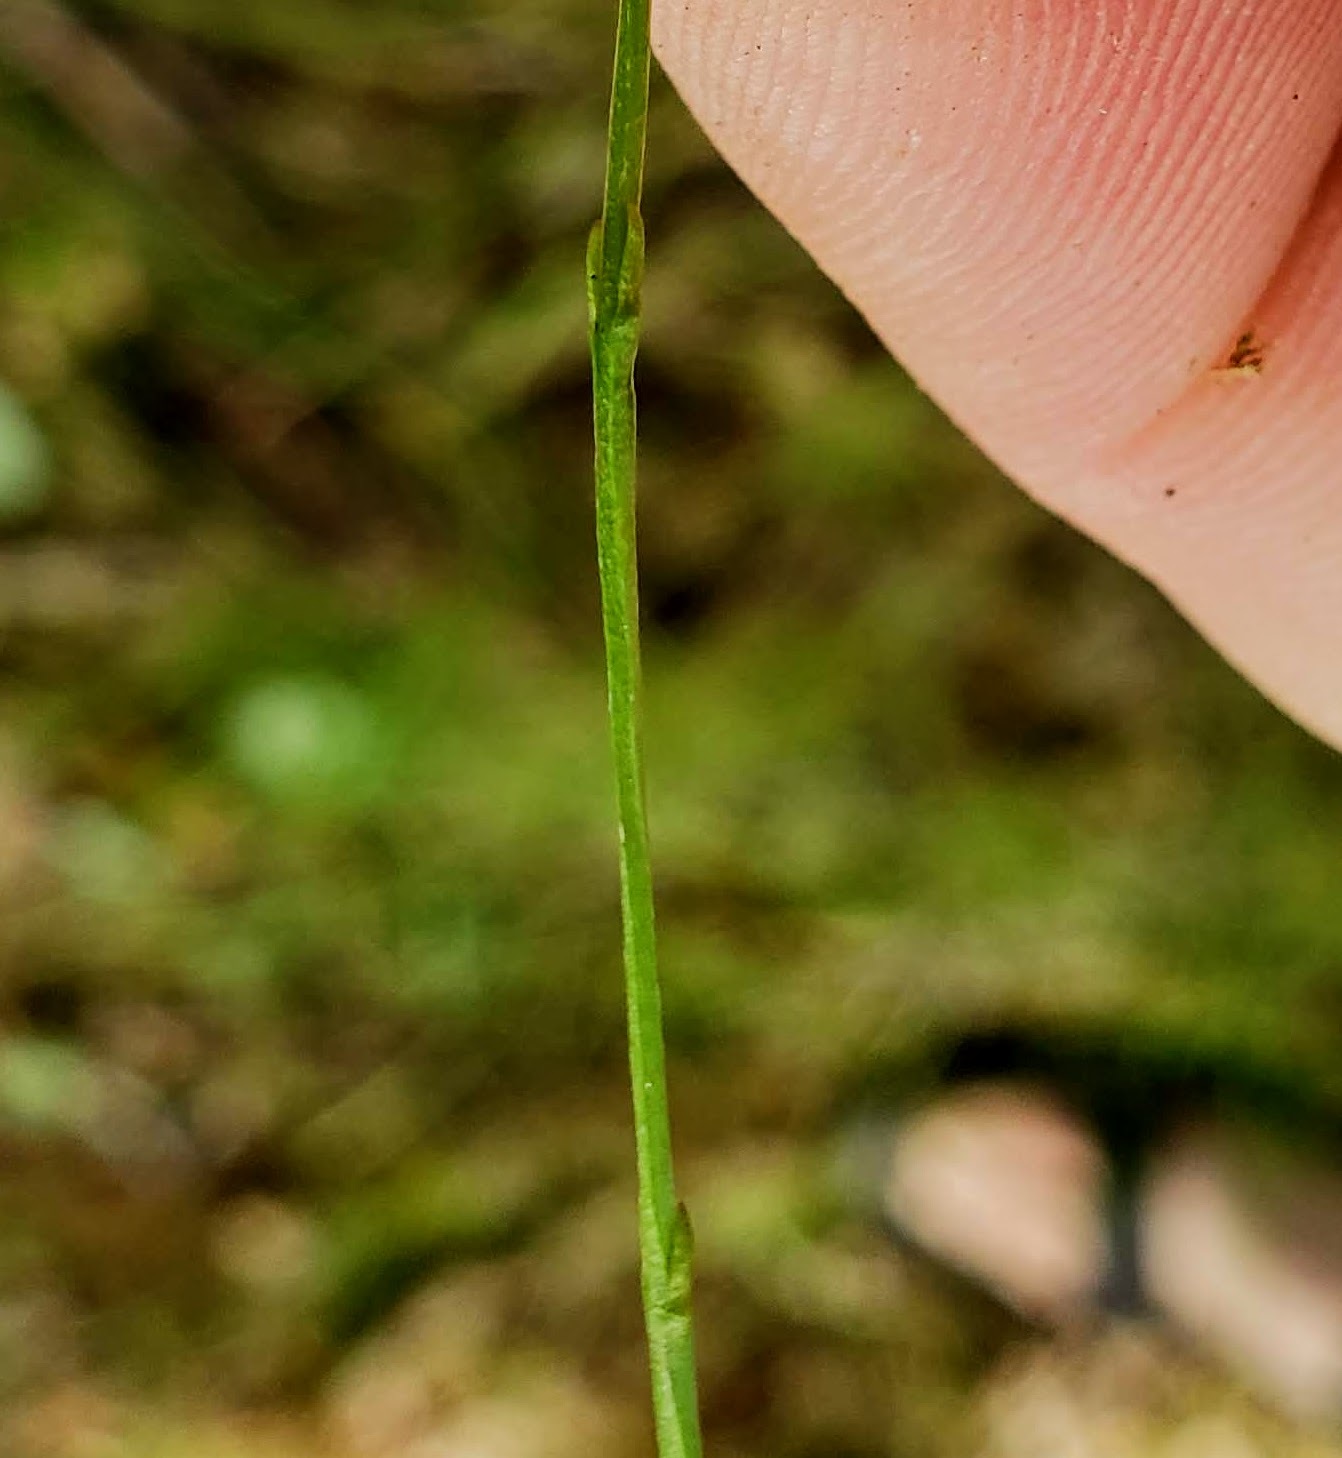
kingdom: Plantae
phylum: Tracheophyta
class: Magnoliopsida
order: Gentianales
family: Gentianaceae
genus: Bartonia
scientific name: Bartonia virginica
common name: Yellow bartonia
